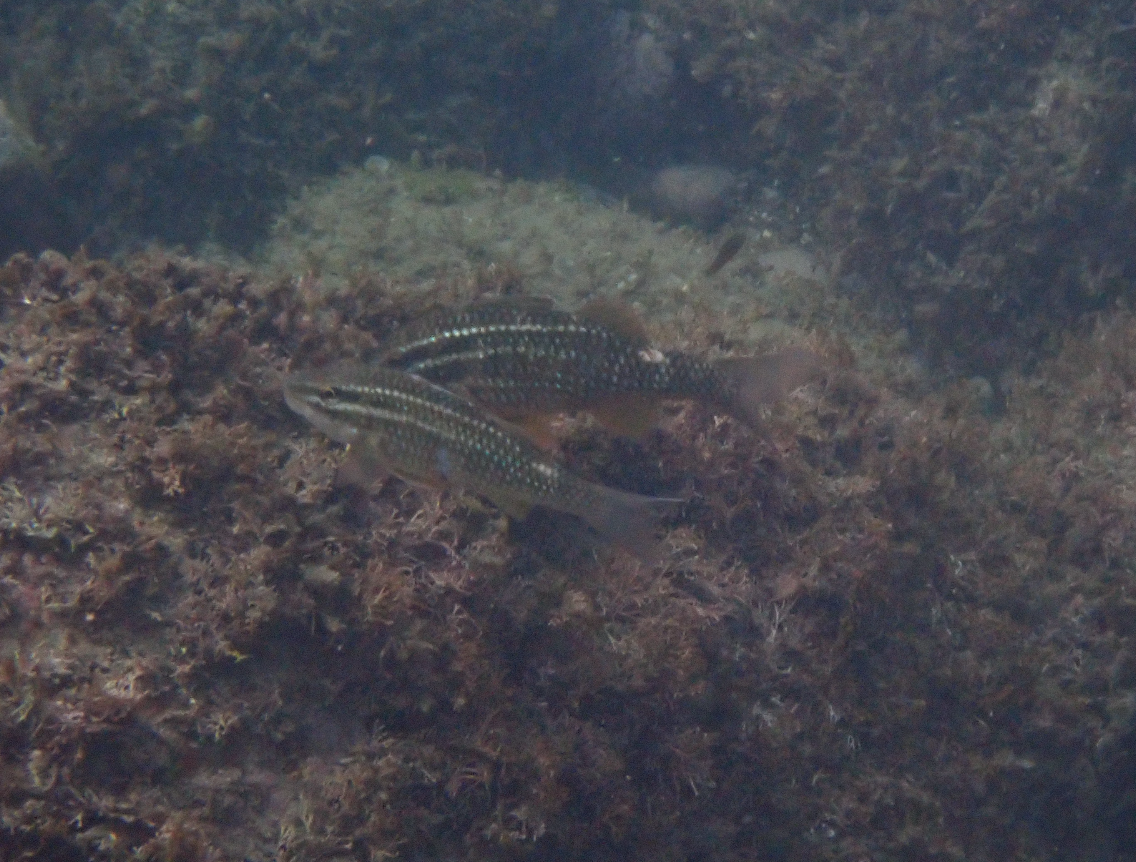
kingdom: Animalia
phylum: Chordata
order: Perciformes
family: Mullidae
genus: Parupeneus
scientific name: Parupeneus ciliatus
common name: White-lined goatfish
